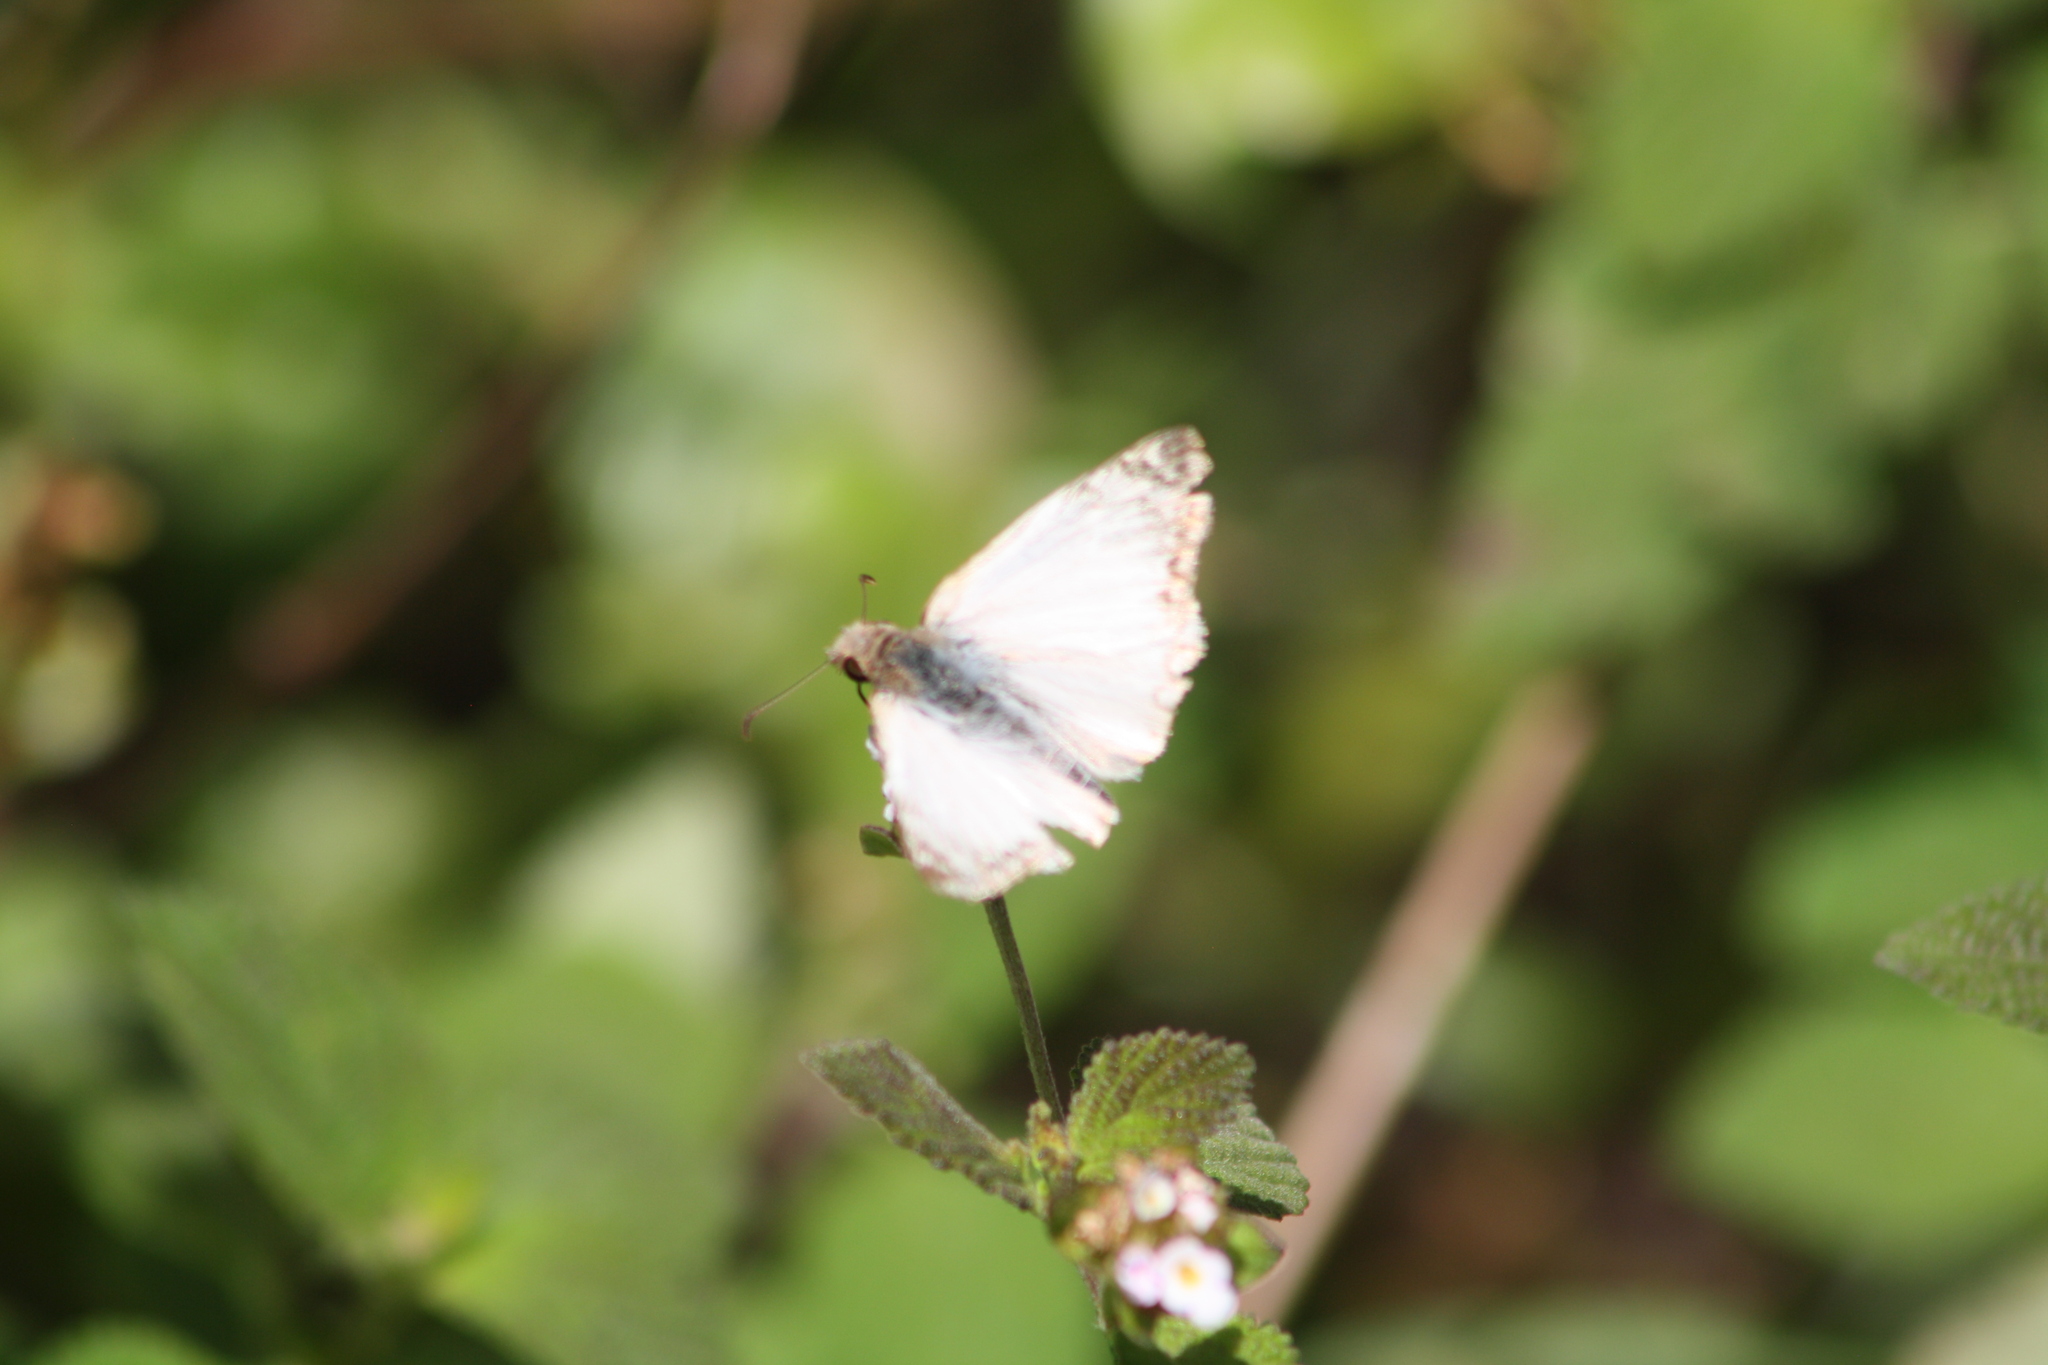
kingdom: Animalia
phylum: Arthropoda
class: Insecta
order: Lepidoptera
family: Hesperiidae
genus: Heliopetes
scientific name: Heliopetes laviana
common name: Laviana white-skipper
